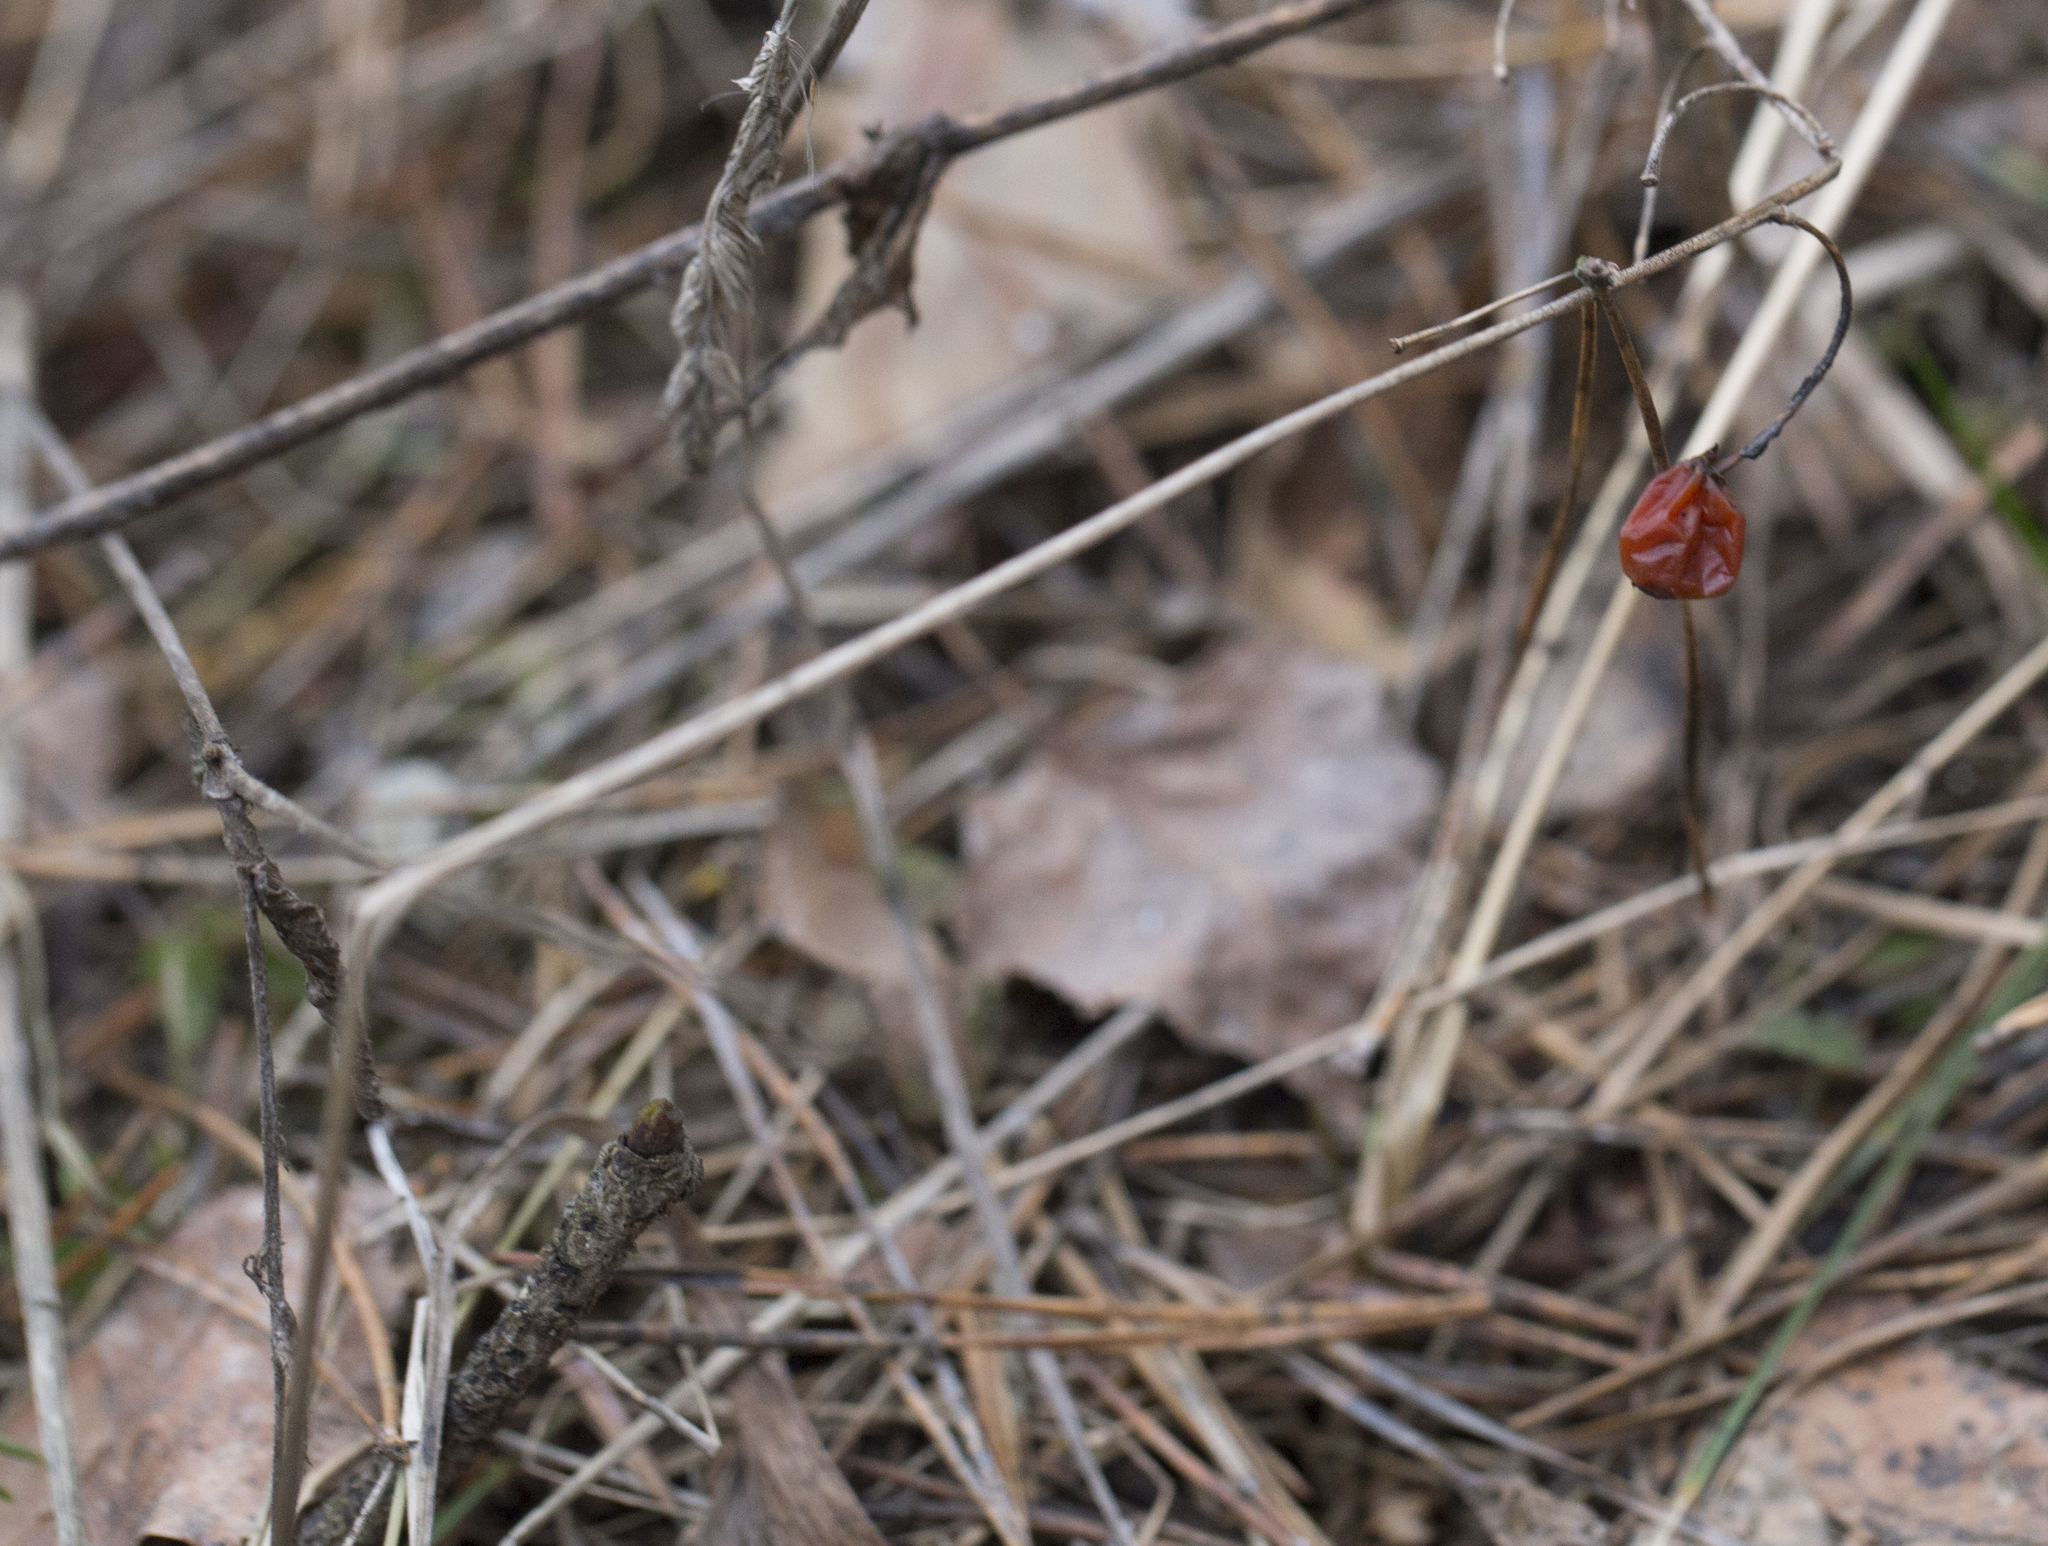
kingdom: Plantae
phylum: Tracheophyta
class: Liliopsida
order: Asparagales
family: Asparagaceae
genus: Convallaria
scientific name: Convallaria majalis
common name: Lily-of-the-valley
